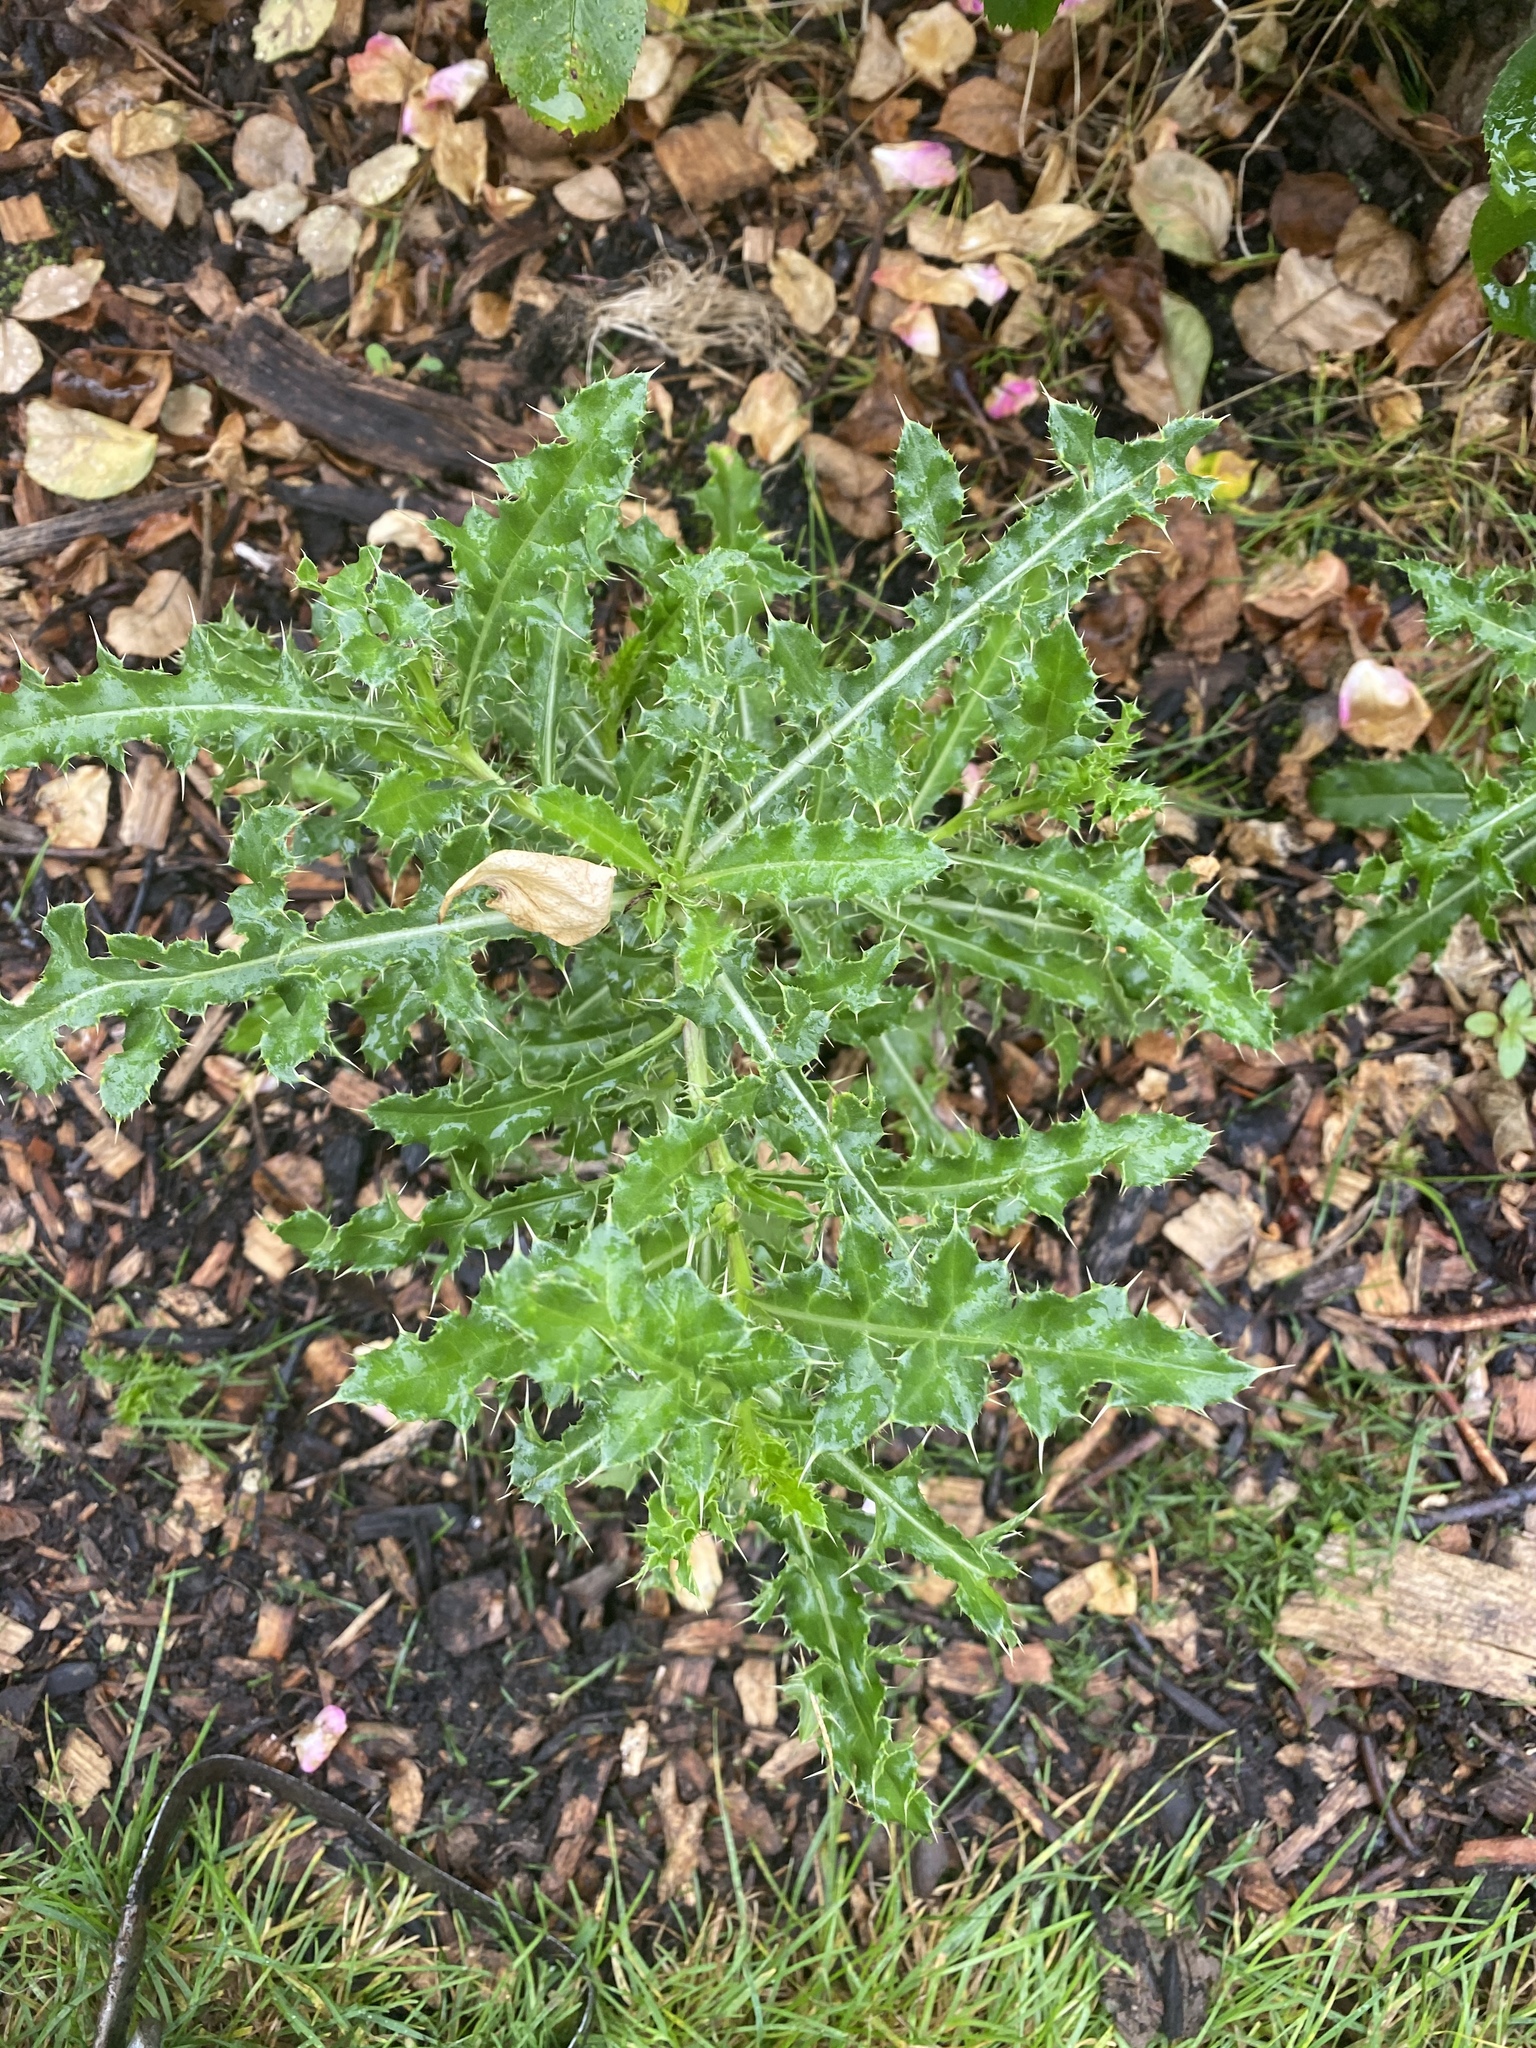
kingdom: Plantae
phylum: Tracheophyta
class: Magnoliopsida
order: Asterales
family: Asteraceae
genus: Cirsium
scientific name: Cirsium arvense
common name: Creeping thistle
